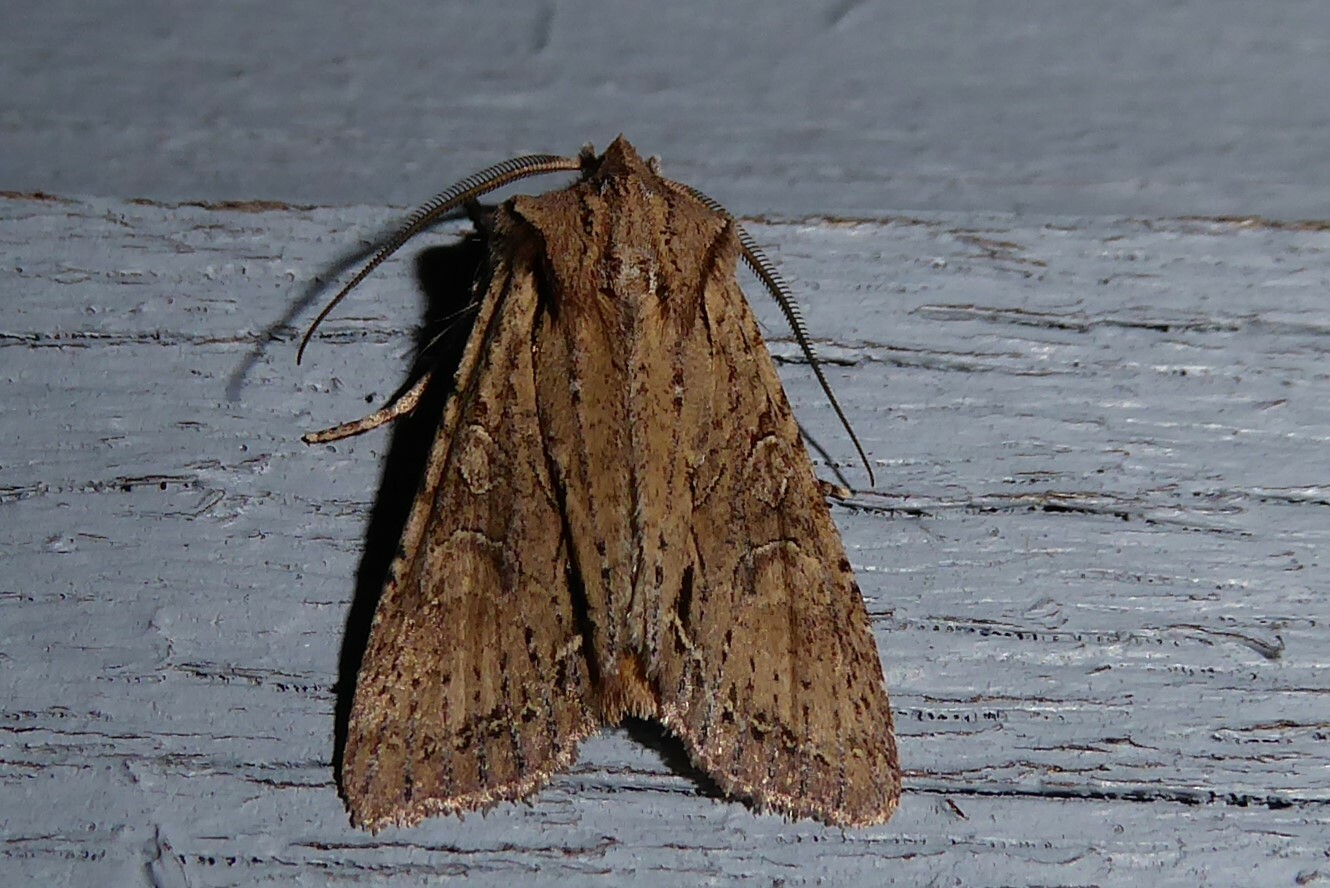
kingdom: Animalia
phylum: Arthropoda
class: Insecta
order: Lepidoptera
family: Noctuidae
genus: Ichneutica
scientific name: Ichneutica
